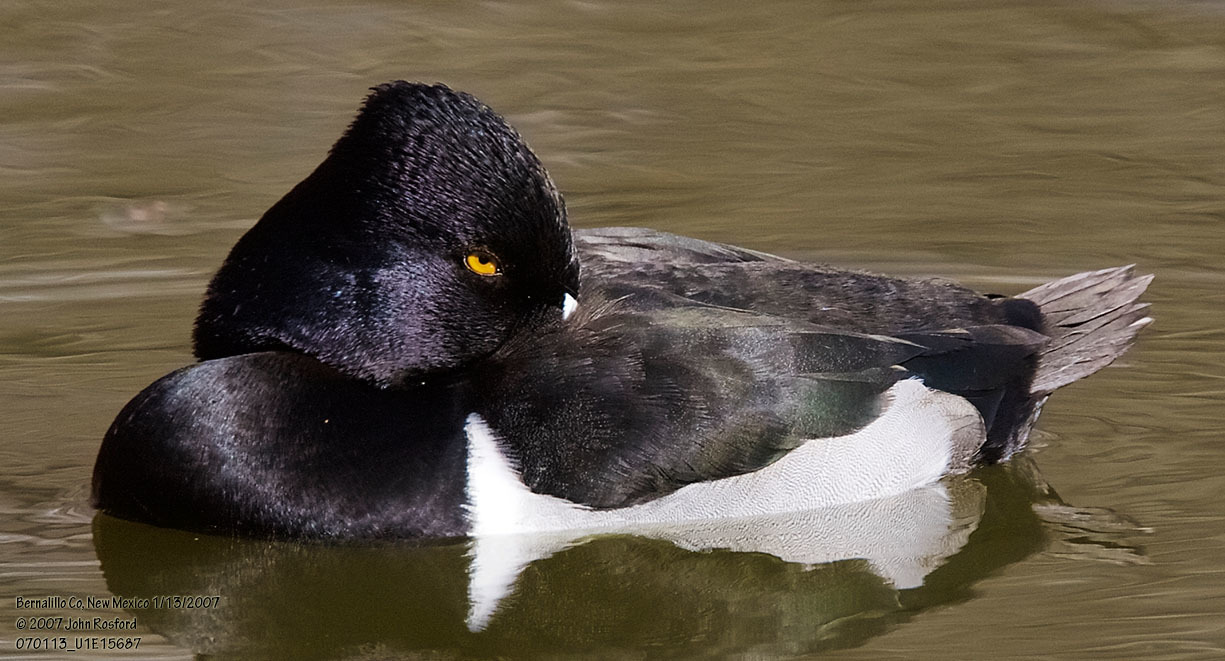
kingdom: Animalia
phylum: Chordata
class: Aves
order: Anseriformes
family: Anatidae
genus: Aythya
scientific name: Aythya collaris
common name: Ring-necked duck
